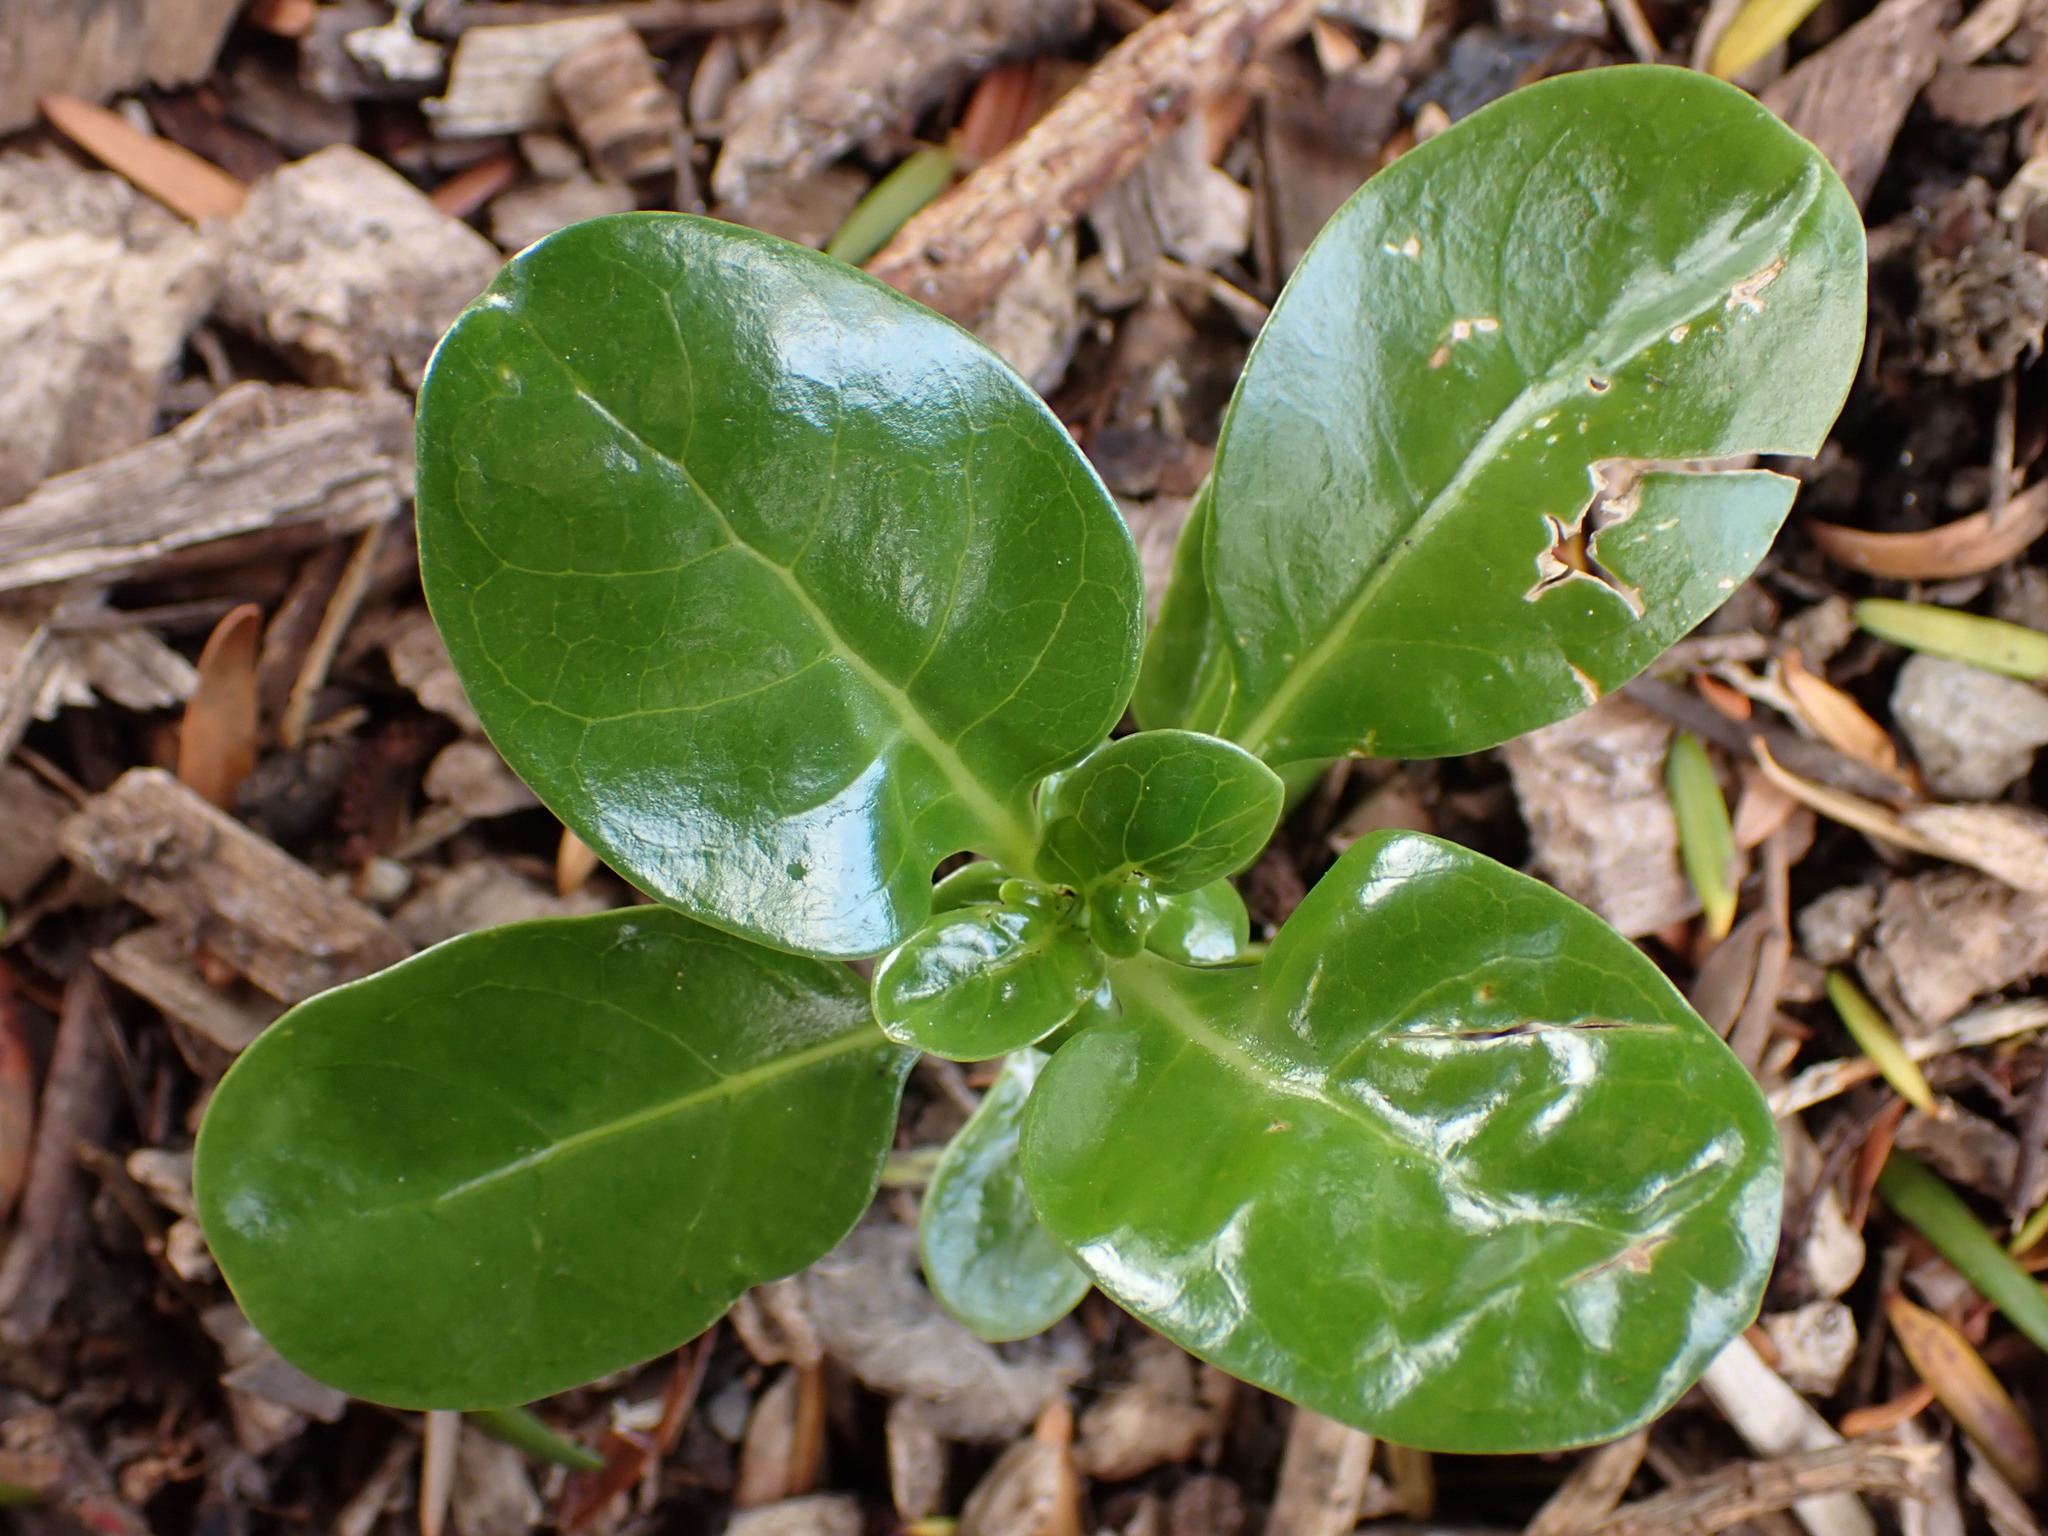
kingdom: Plantae
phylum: Tracheophyta
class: Magnoliopsida
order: Gentianales
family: Rubiaceae
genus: Coprosma
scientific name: Coprosma repens
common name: Tree bedstraw
